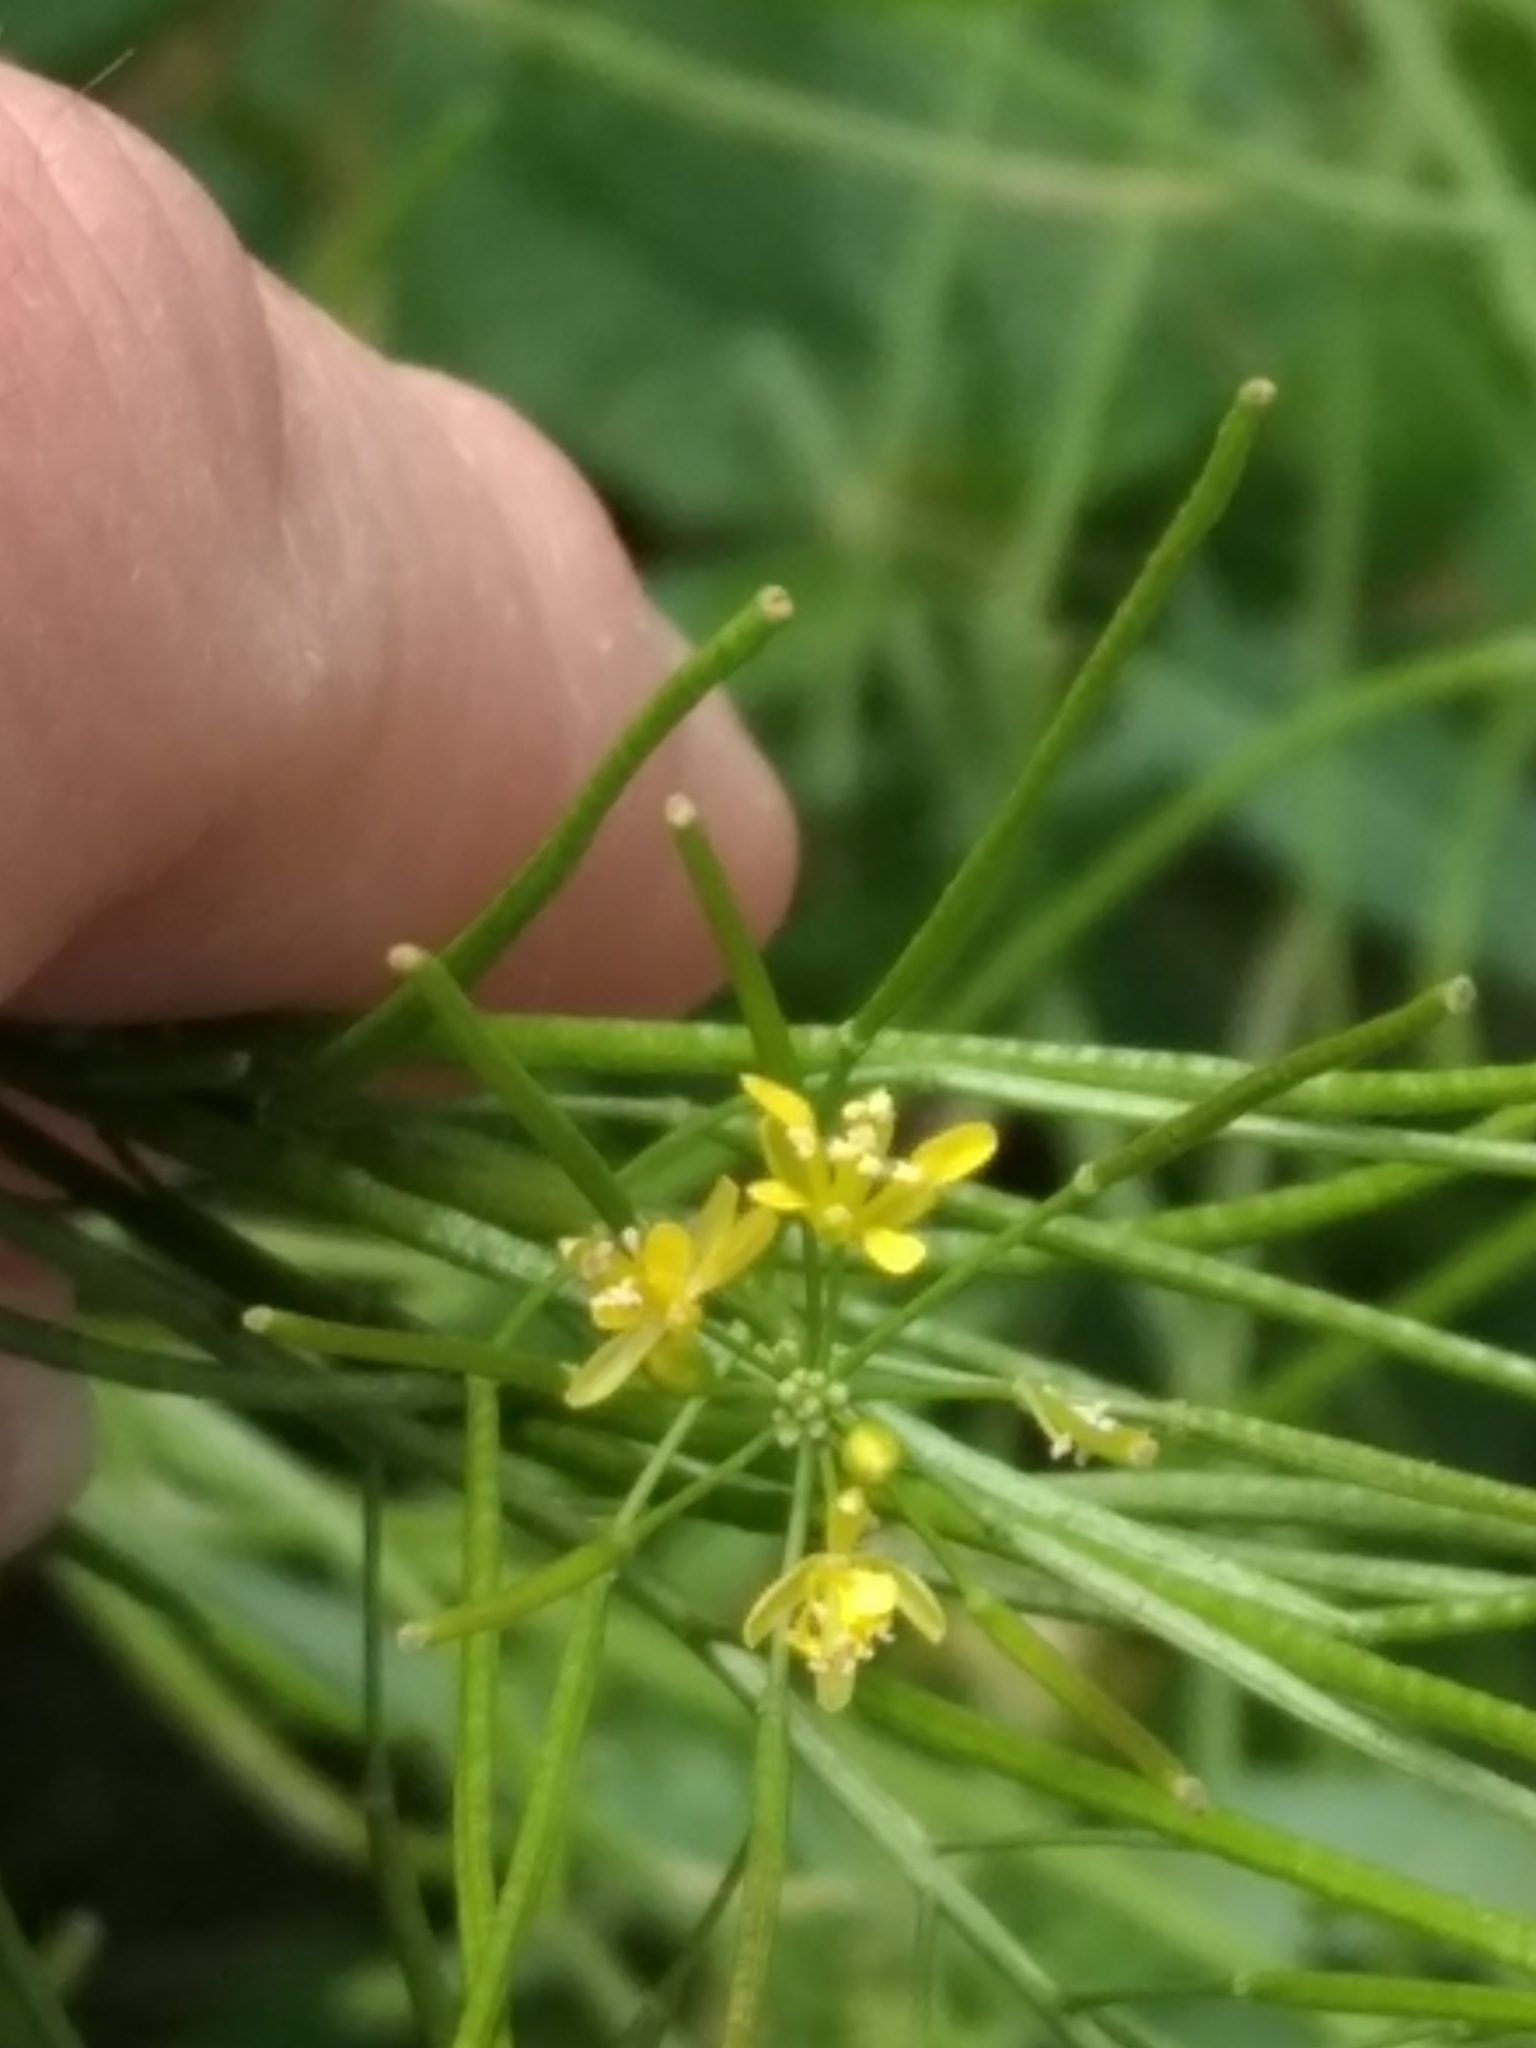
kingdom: Plantae
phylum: Tracheophyta
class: Magnoliopsida
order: Brassicales
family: Brassicaceae
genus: Sisymbrium
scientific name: Sisymbrium irio
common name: London rocket
